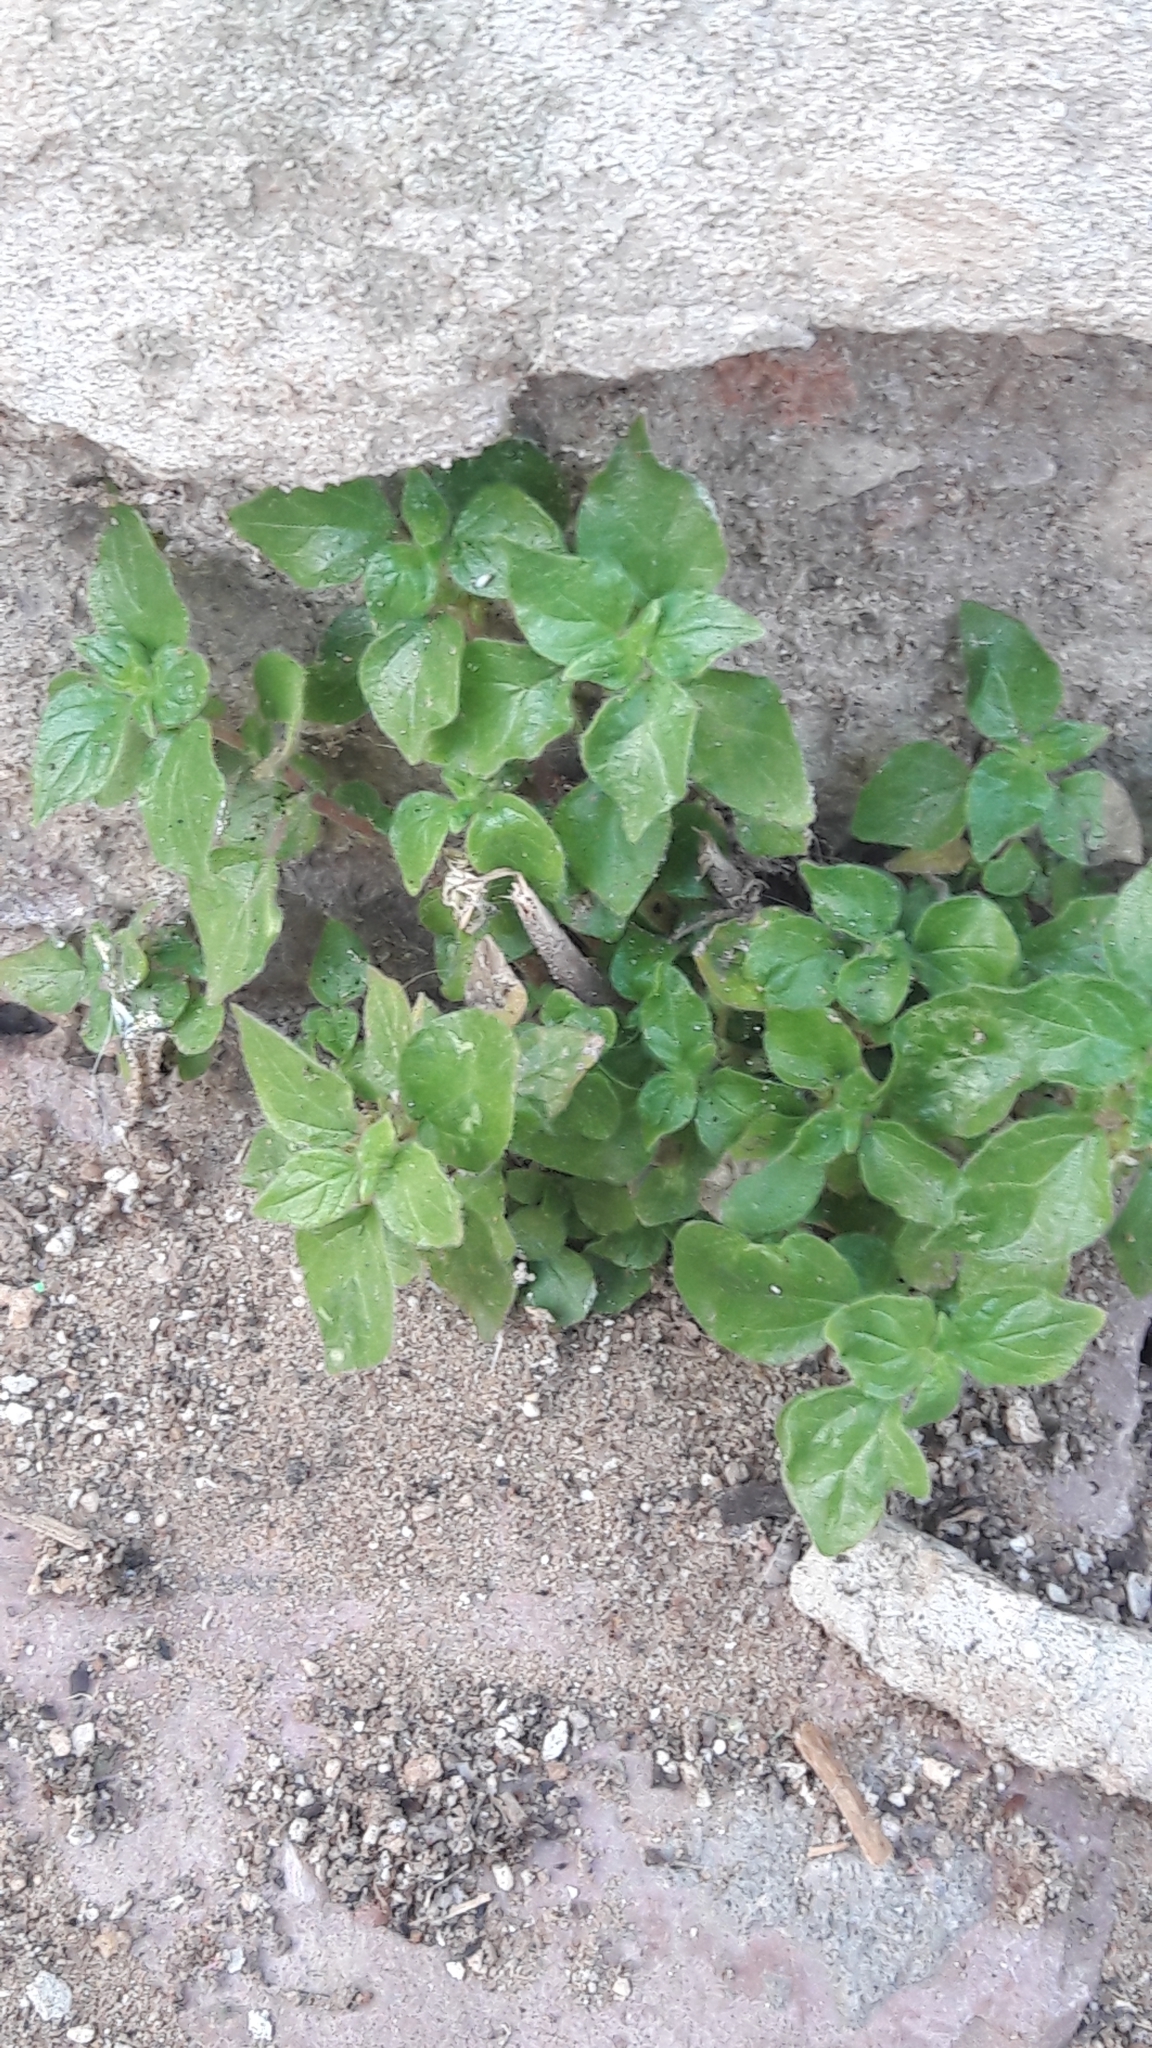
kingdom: Plantae
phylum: Tracheophyta
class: Magnoliopsida
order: Rosales
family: Urticaceae
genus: Parietaria
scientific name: Parietaria judaica
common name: Pellitory-of-the-wall
